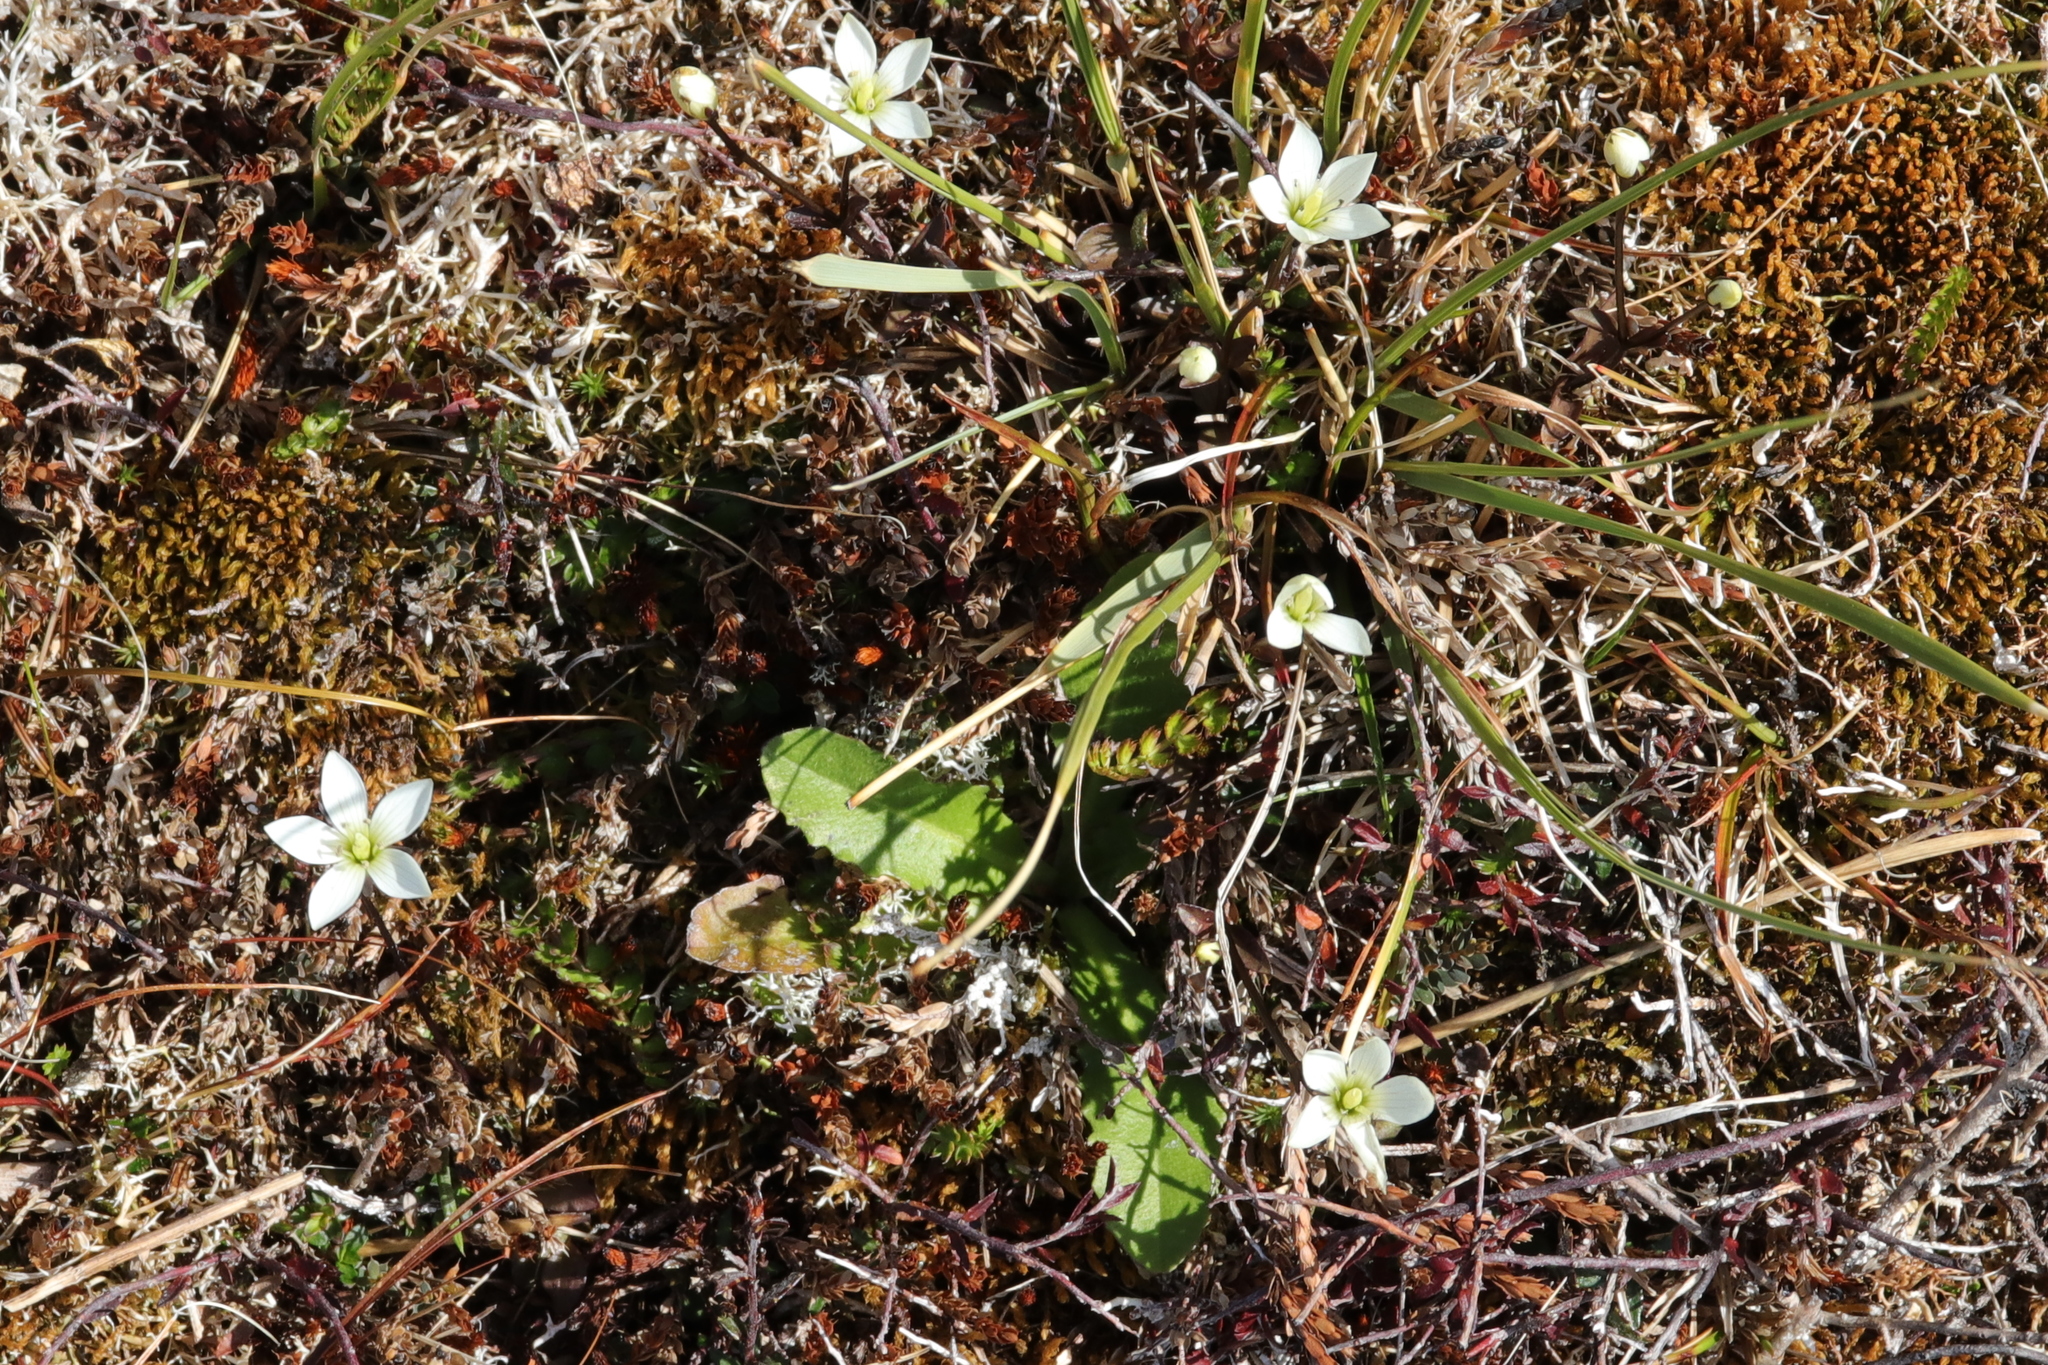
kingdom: Plantae
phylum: Tracheophyta
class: Magnoliopsida
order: Gentianales
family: Gentianaceae
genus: Gentianella
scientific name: Gentianella grisebachii
